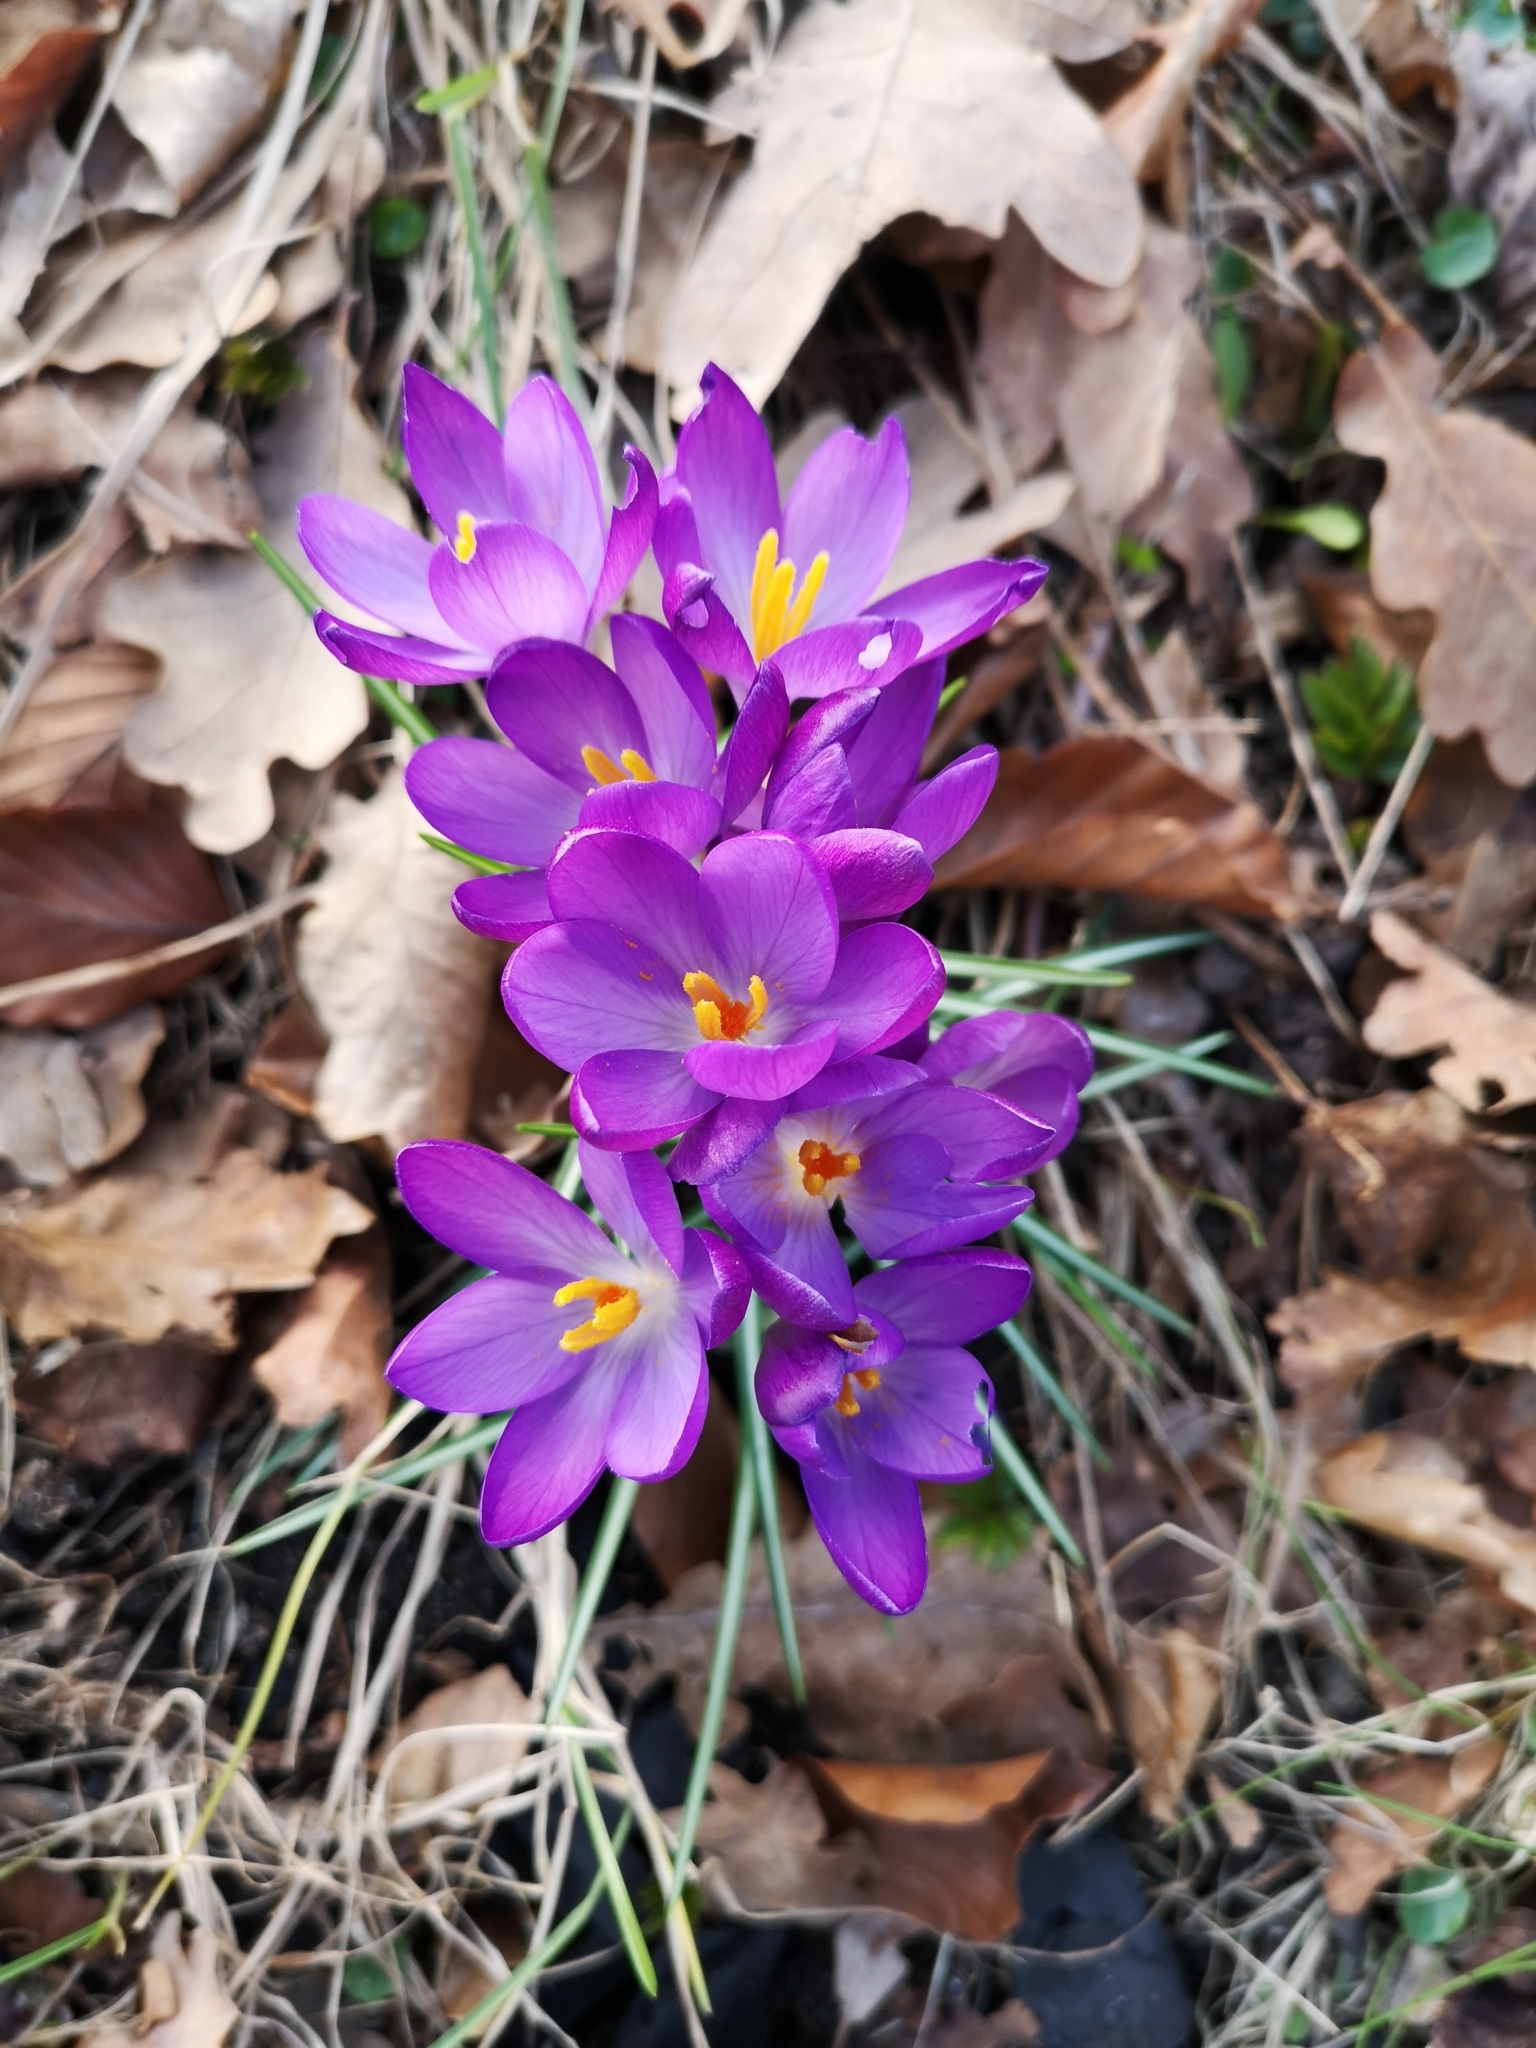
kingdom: Plantae
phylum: Tracheophyta
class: Liliopsida
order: Asparagales
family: Iridaceae
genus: Crocus
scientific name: Crocus tommasinianus
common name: Early crocus
